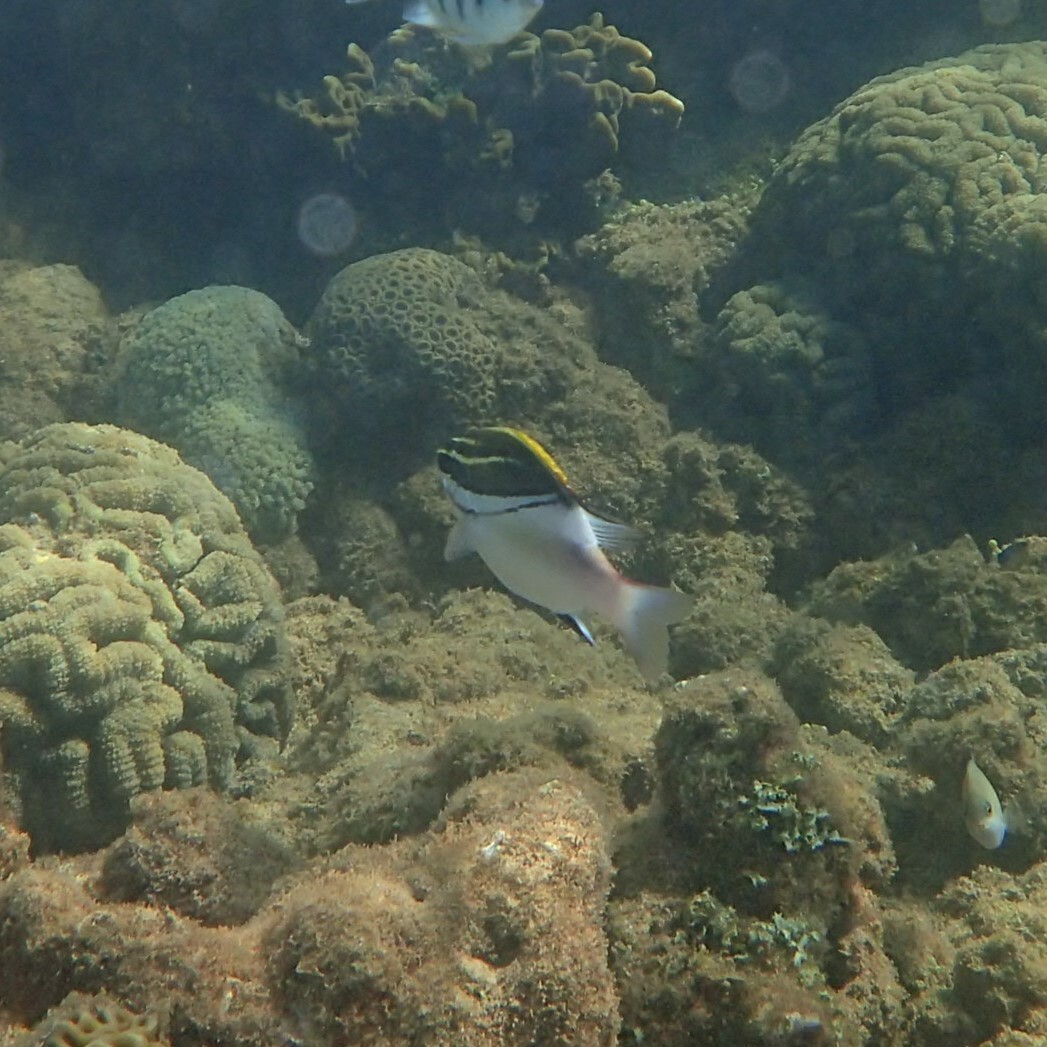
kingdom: Animalia
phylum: Chordata
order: Perciformes
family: Nemipteridae
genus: Scolopsis
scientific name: Scolopsis bilineata
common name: Two-lined monocle bream
